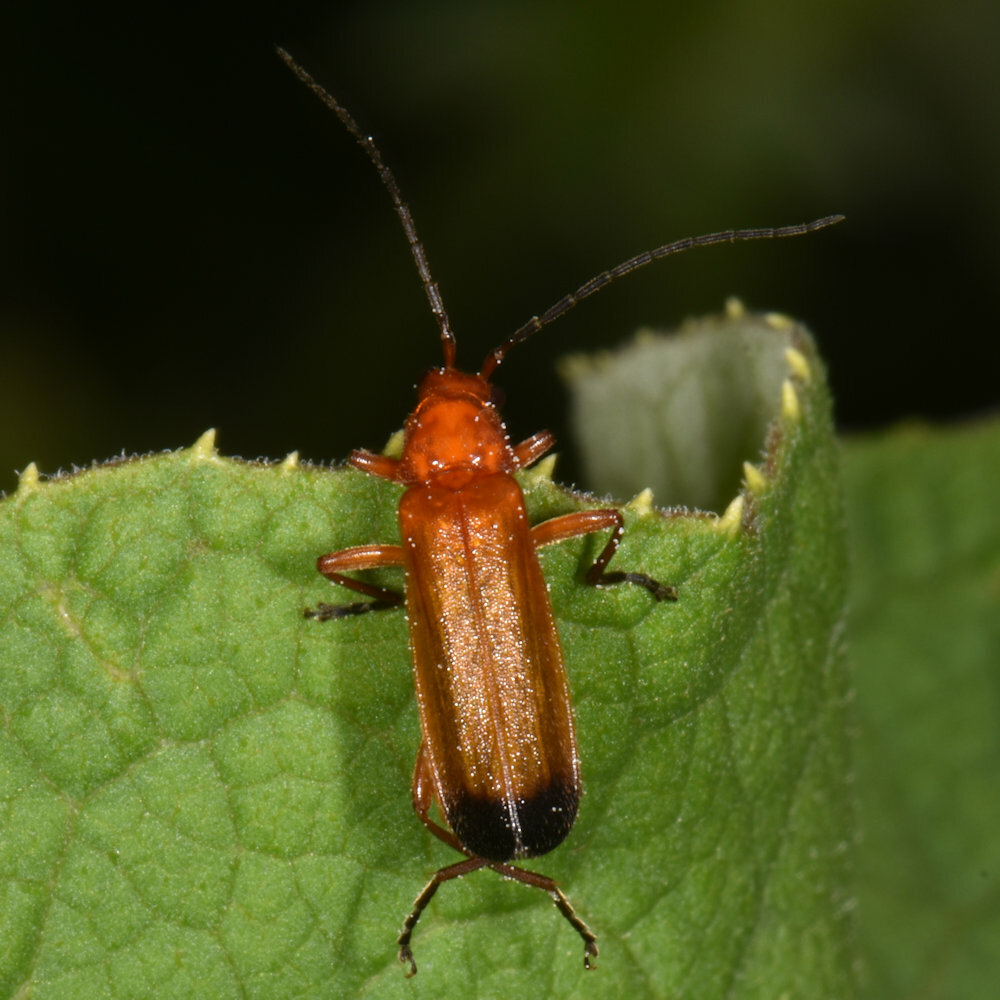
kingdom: Animalia
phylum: Arthropoda
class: Insecta
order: Coleoptera
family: Cantharidae
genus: Rhagonycha
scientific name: Rhagonycha fulva
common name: Common red soldier beetle
